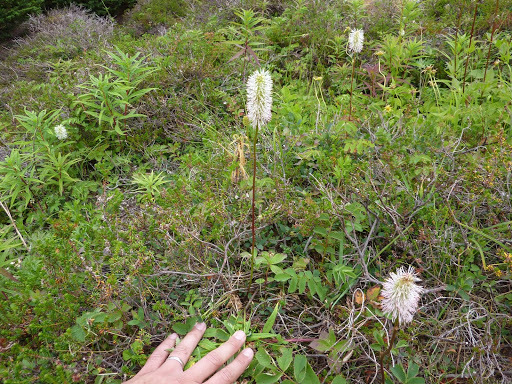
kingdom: Plantae
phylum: Tracheophyta
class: Magnoliopsida
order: Rosales
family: Rosaceae
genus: Sanguisorba
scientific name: Sanguisorba stipulata
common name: Sitka burnet
